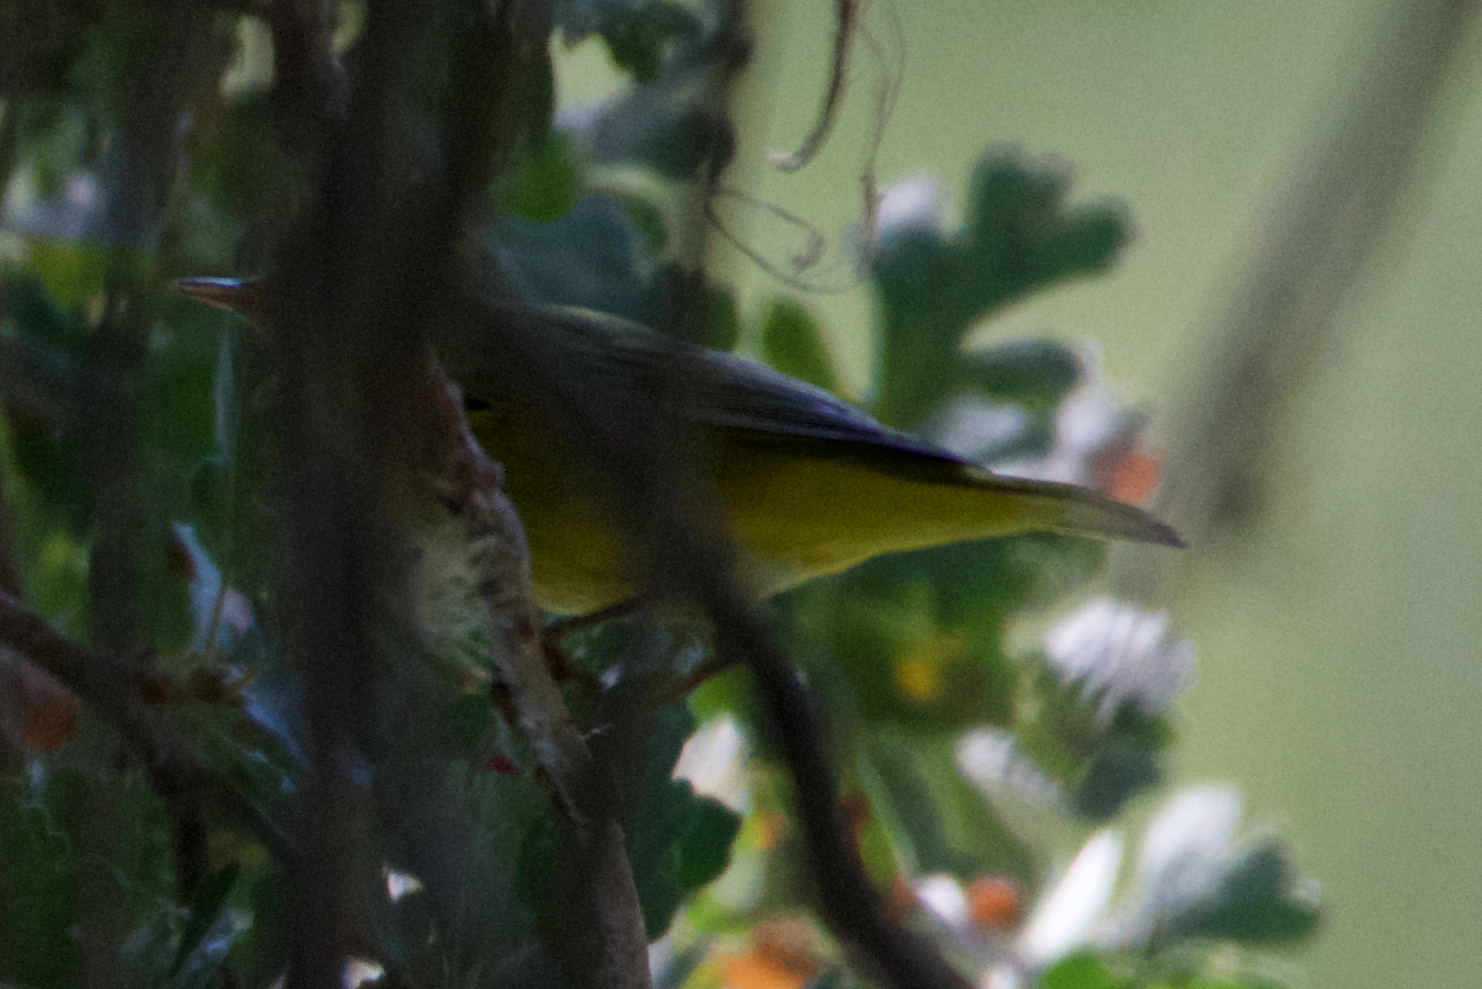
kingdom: Animalia
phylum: Chordata
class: Aves
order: Passeriformes
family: Parulidae
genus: Setophaga
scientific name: Setophaga petechia
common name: Yellow warbler
